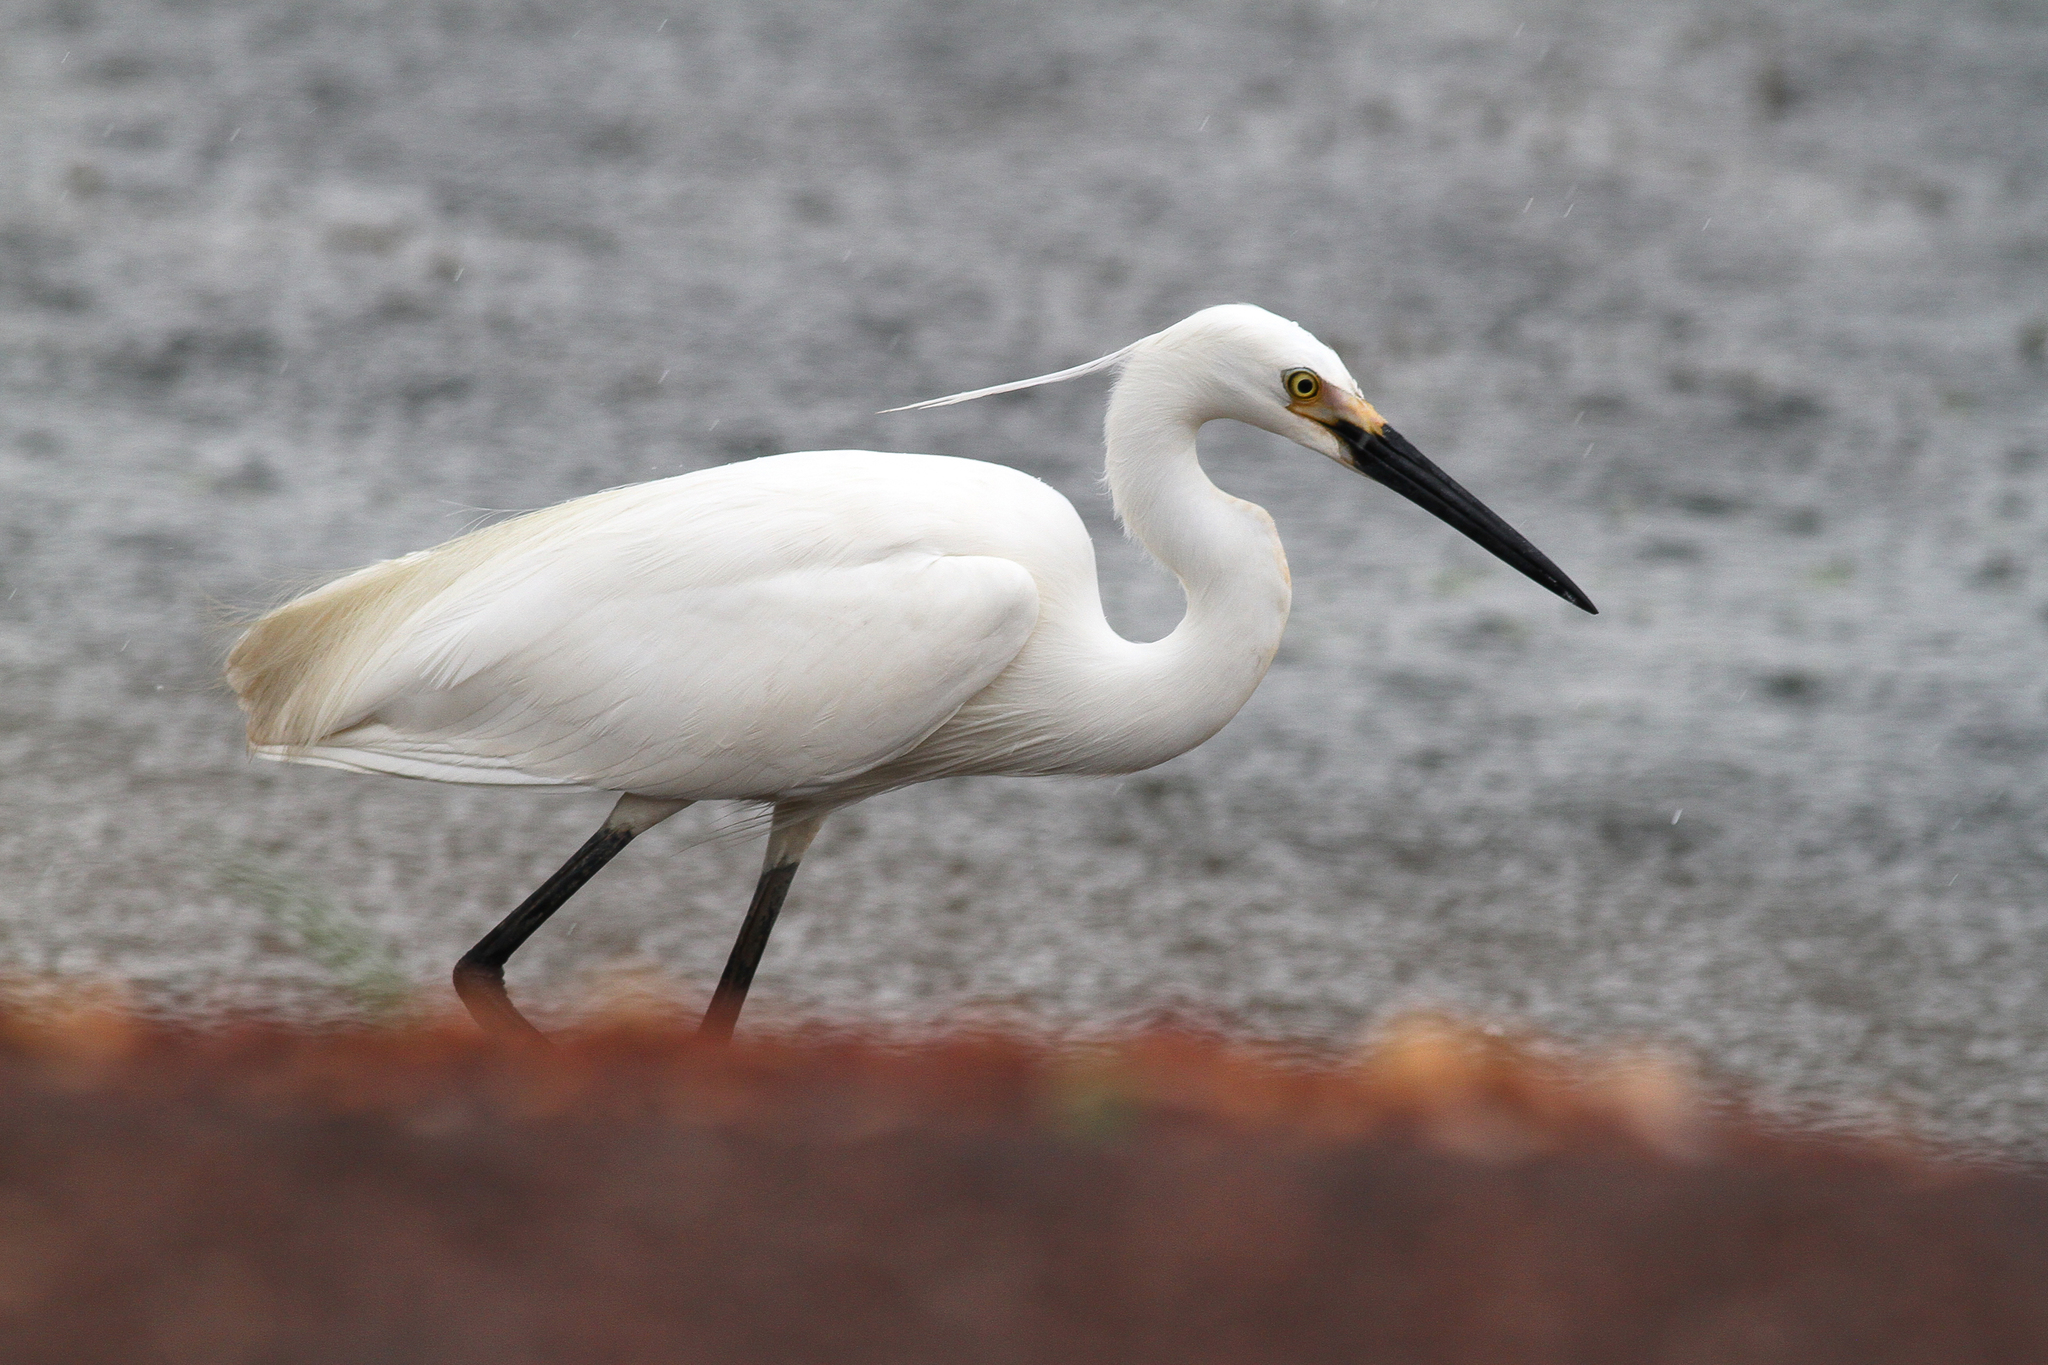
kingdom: Animalia
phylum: Chordata
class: Aves
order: Pelecaniformes
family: Ardeidae
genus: Egretta
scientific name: Egretta garzetta
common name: Little egret
